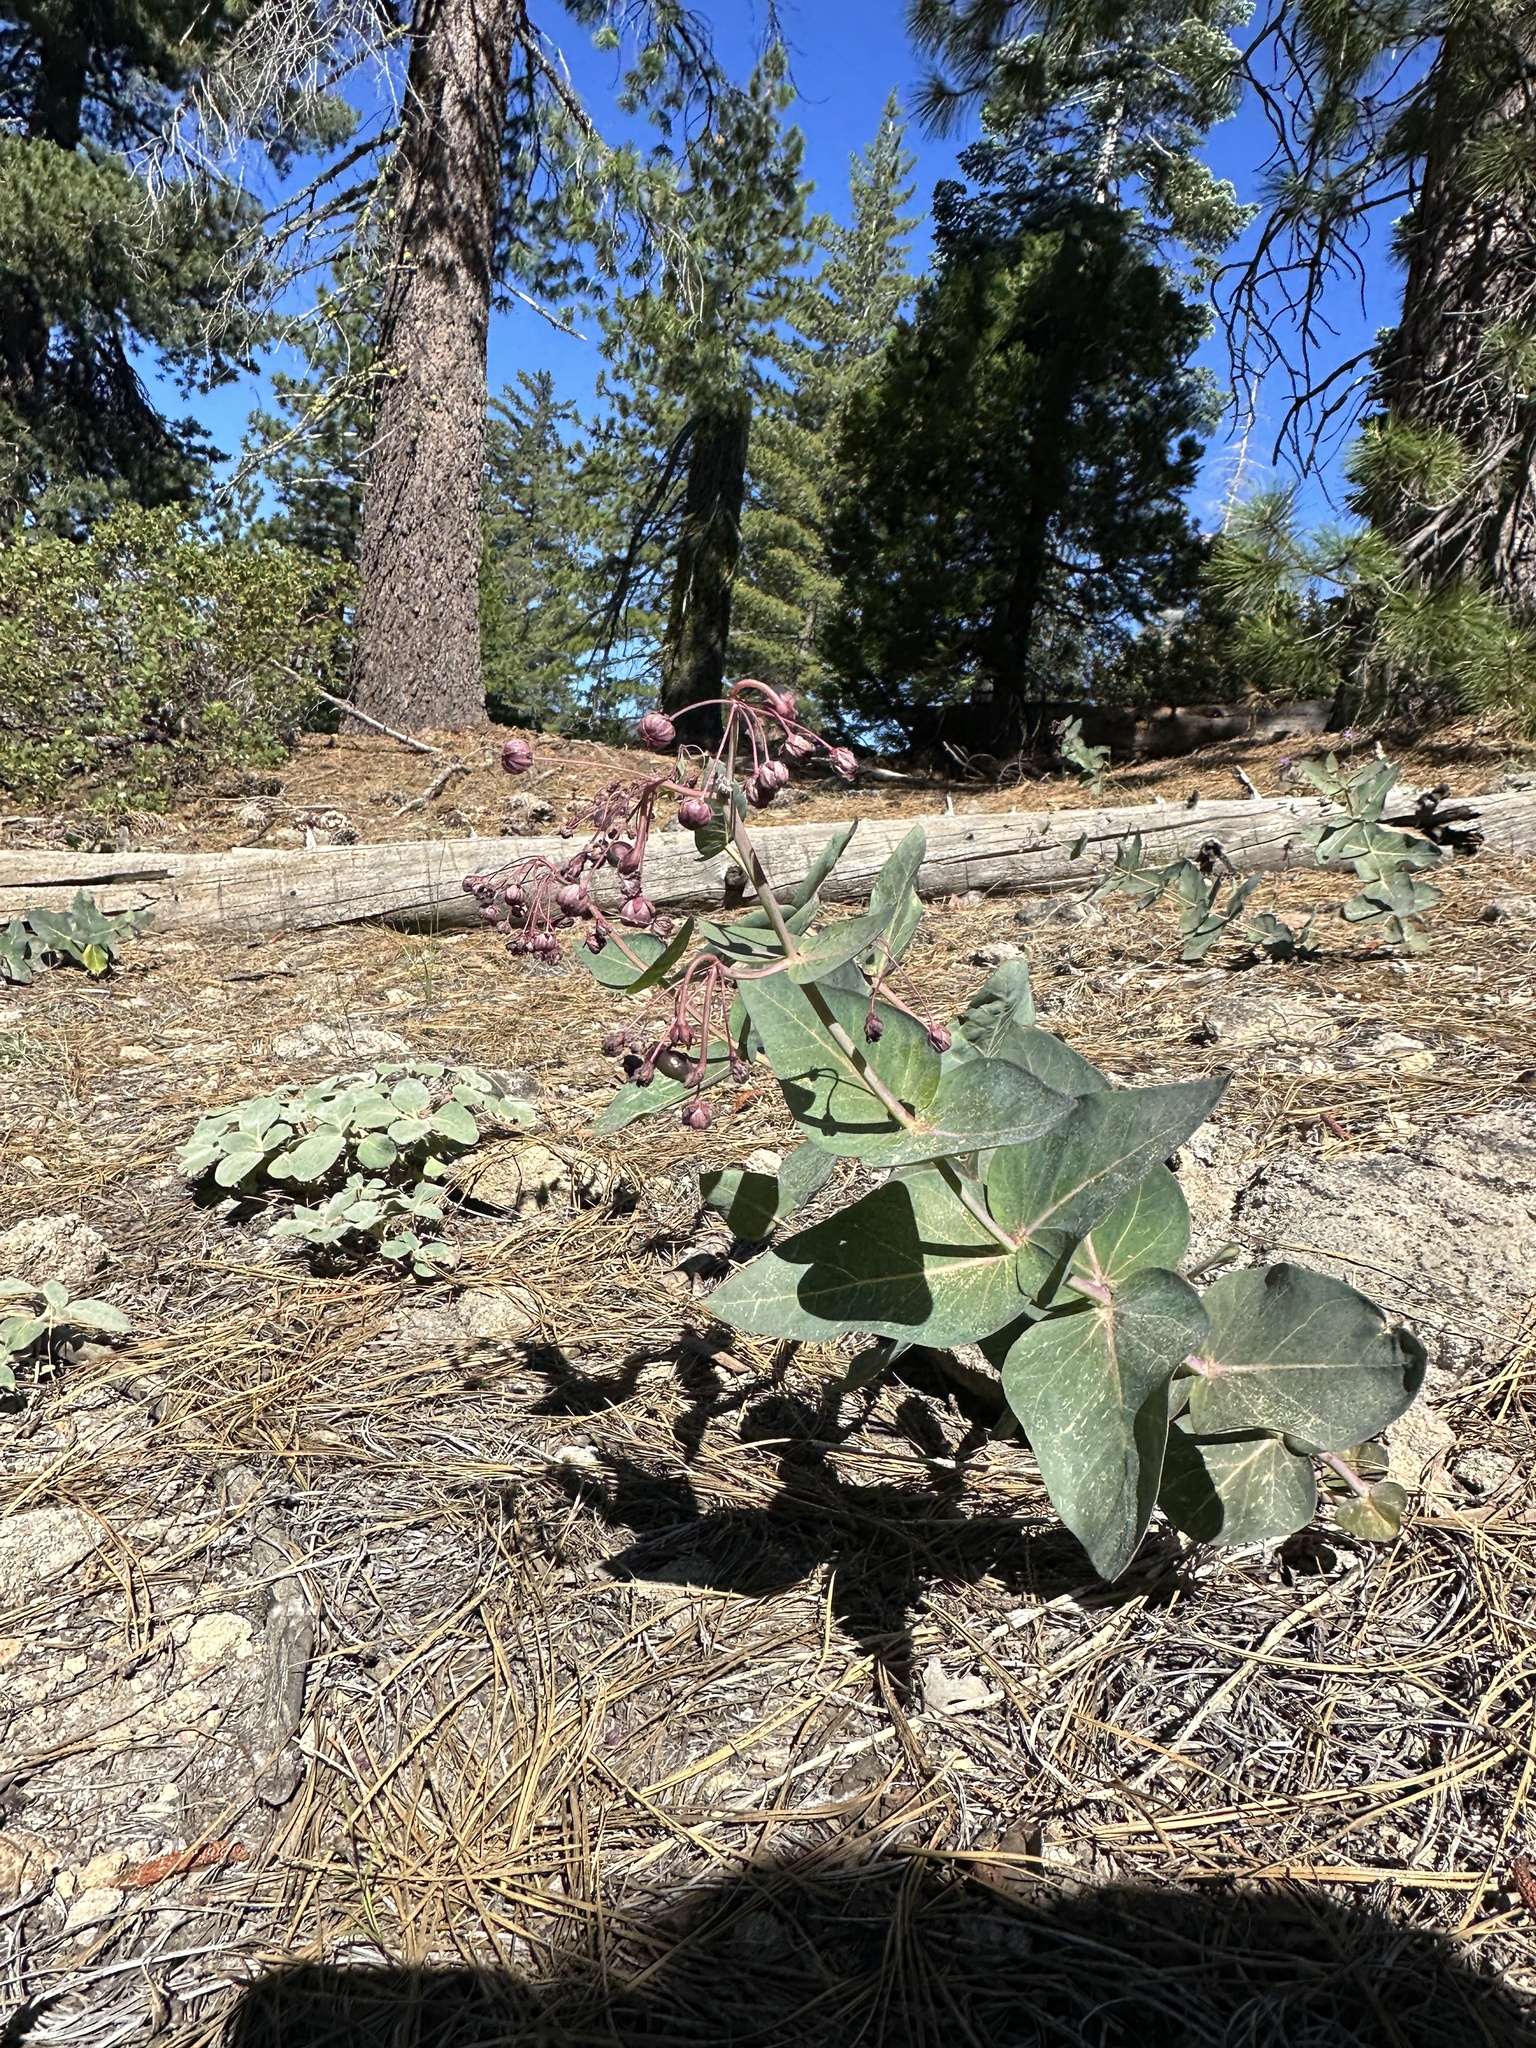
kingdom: Plantae
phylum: Tracheophyta
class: Magnoliopsida
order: Gentianales
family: Apocynaceae
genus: Asclepias
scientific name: Asclepias cordifolia
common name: Purple milkweed
